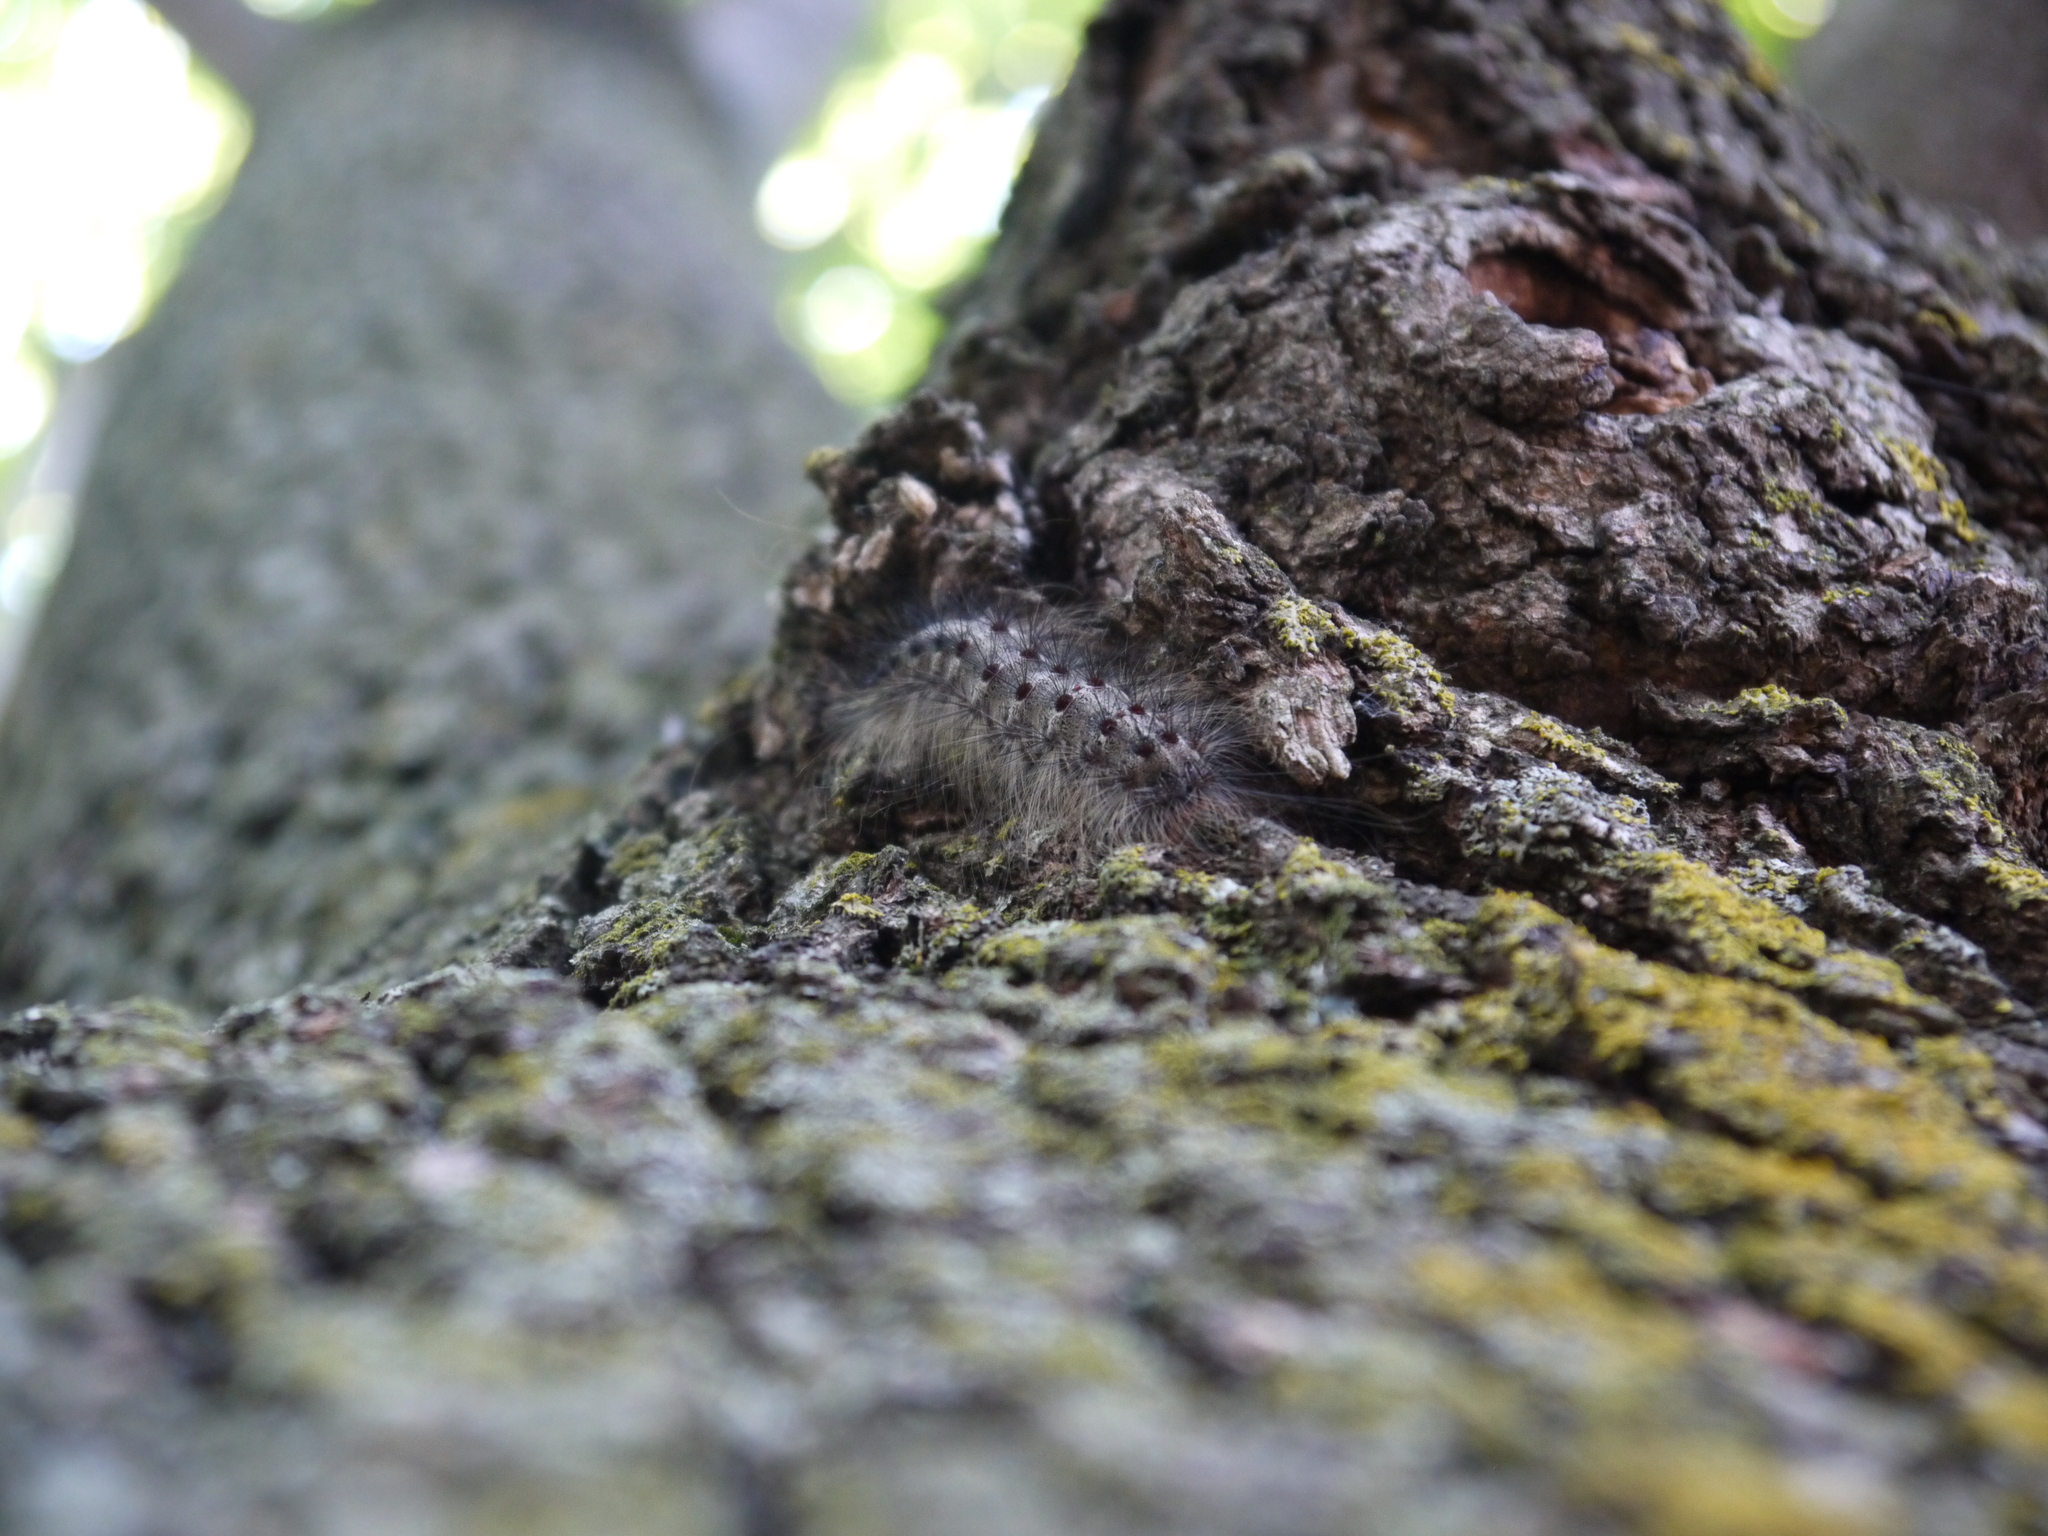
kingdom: Animalia
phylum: Arthropoda
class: Insecta
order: Lepidoptera
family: Erebidae
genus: Lymantria
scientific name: Lymantria dispar
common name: Gypsy moth
